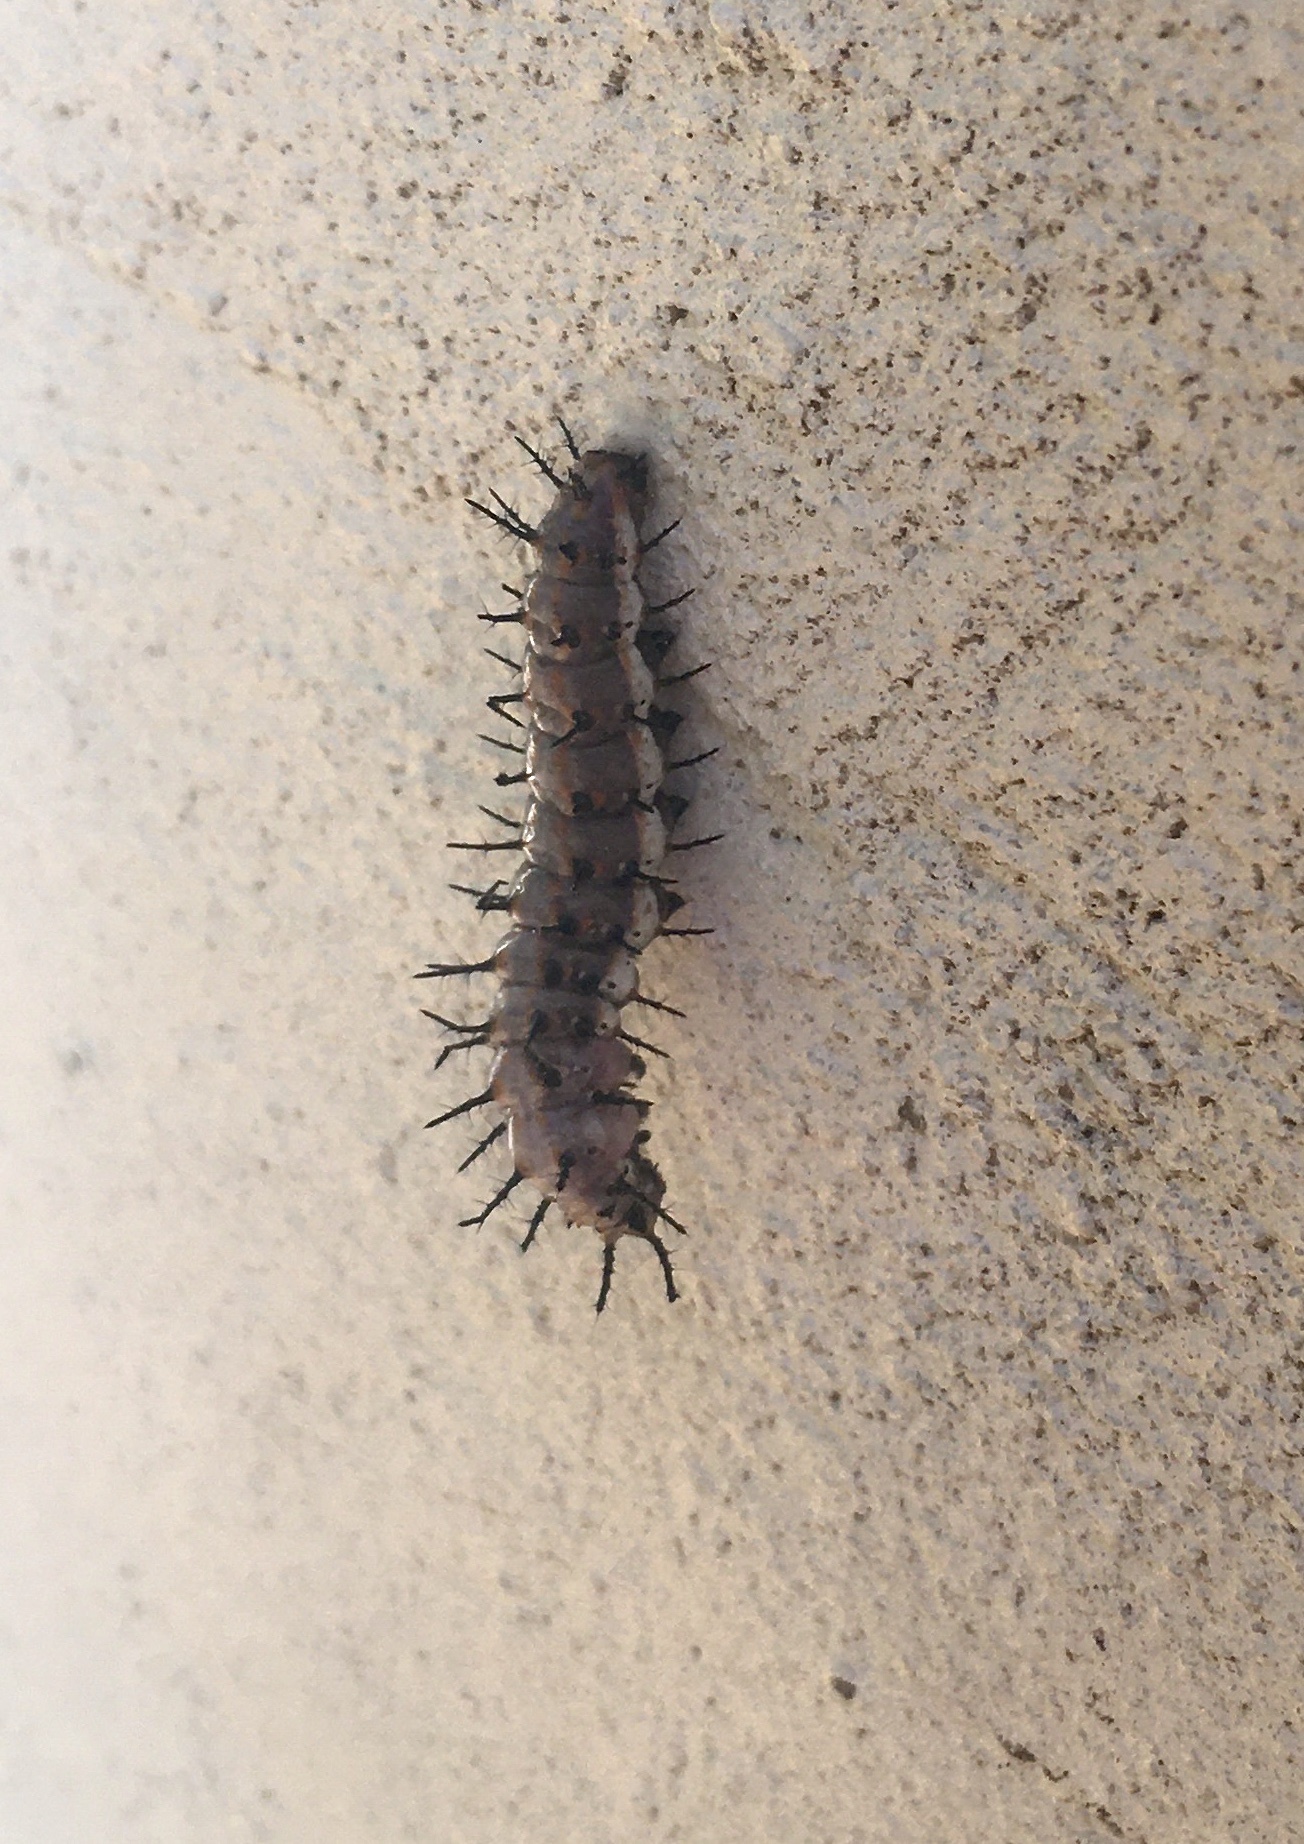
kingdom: Animalia
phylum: Arthropoda
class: Insecta
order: Lepidoptera
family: Nymphalidae
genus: Dione
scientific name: Dione vanillae
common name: Gulf fritillary
